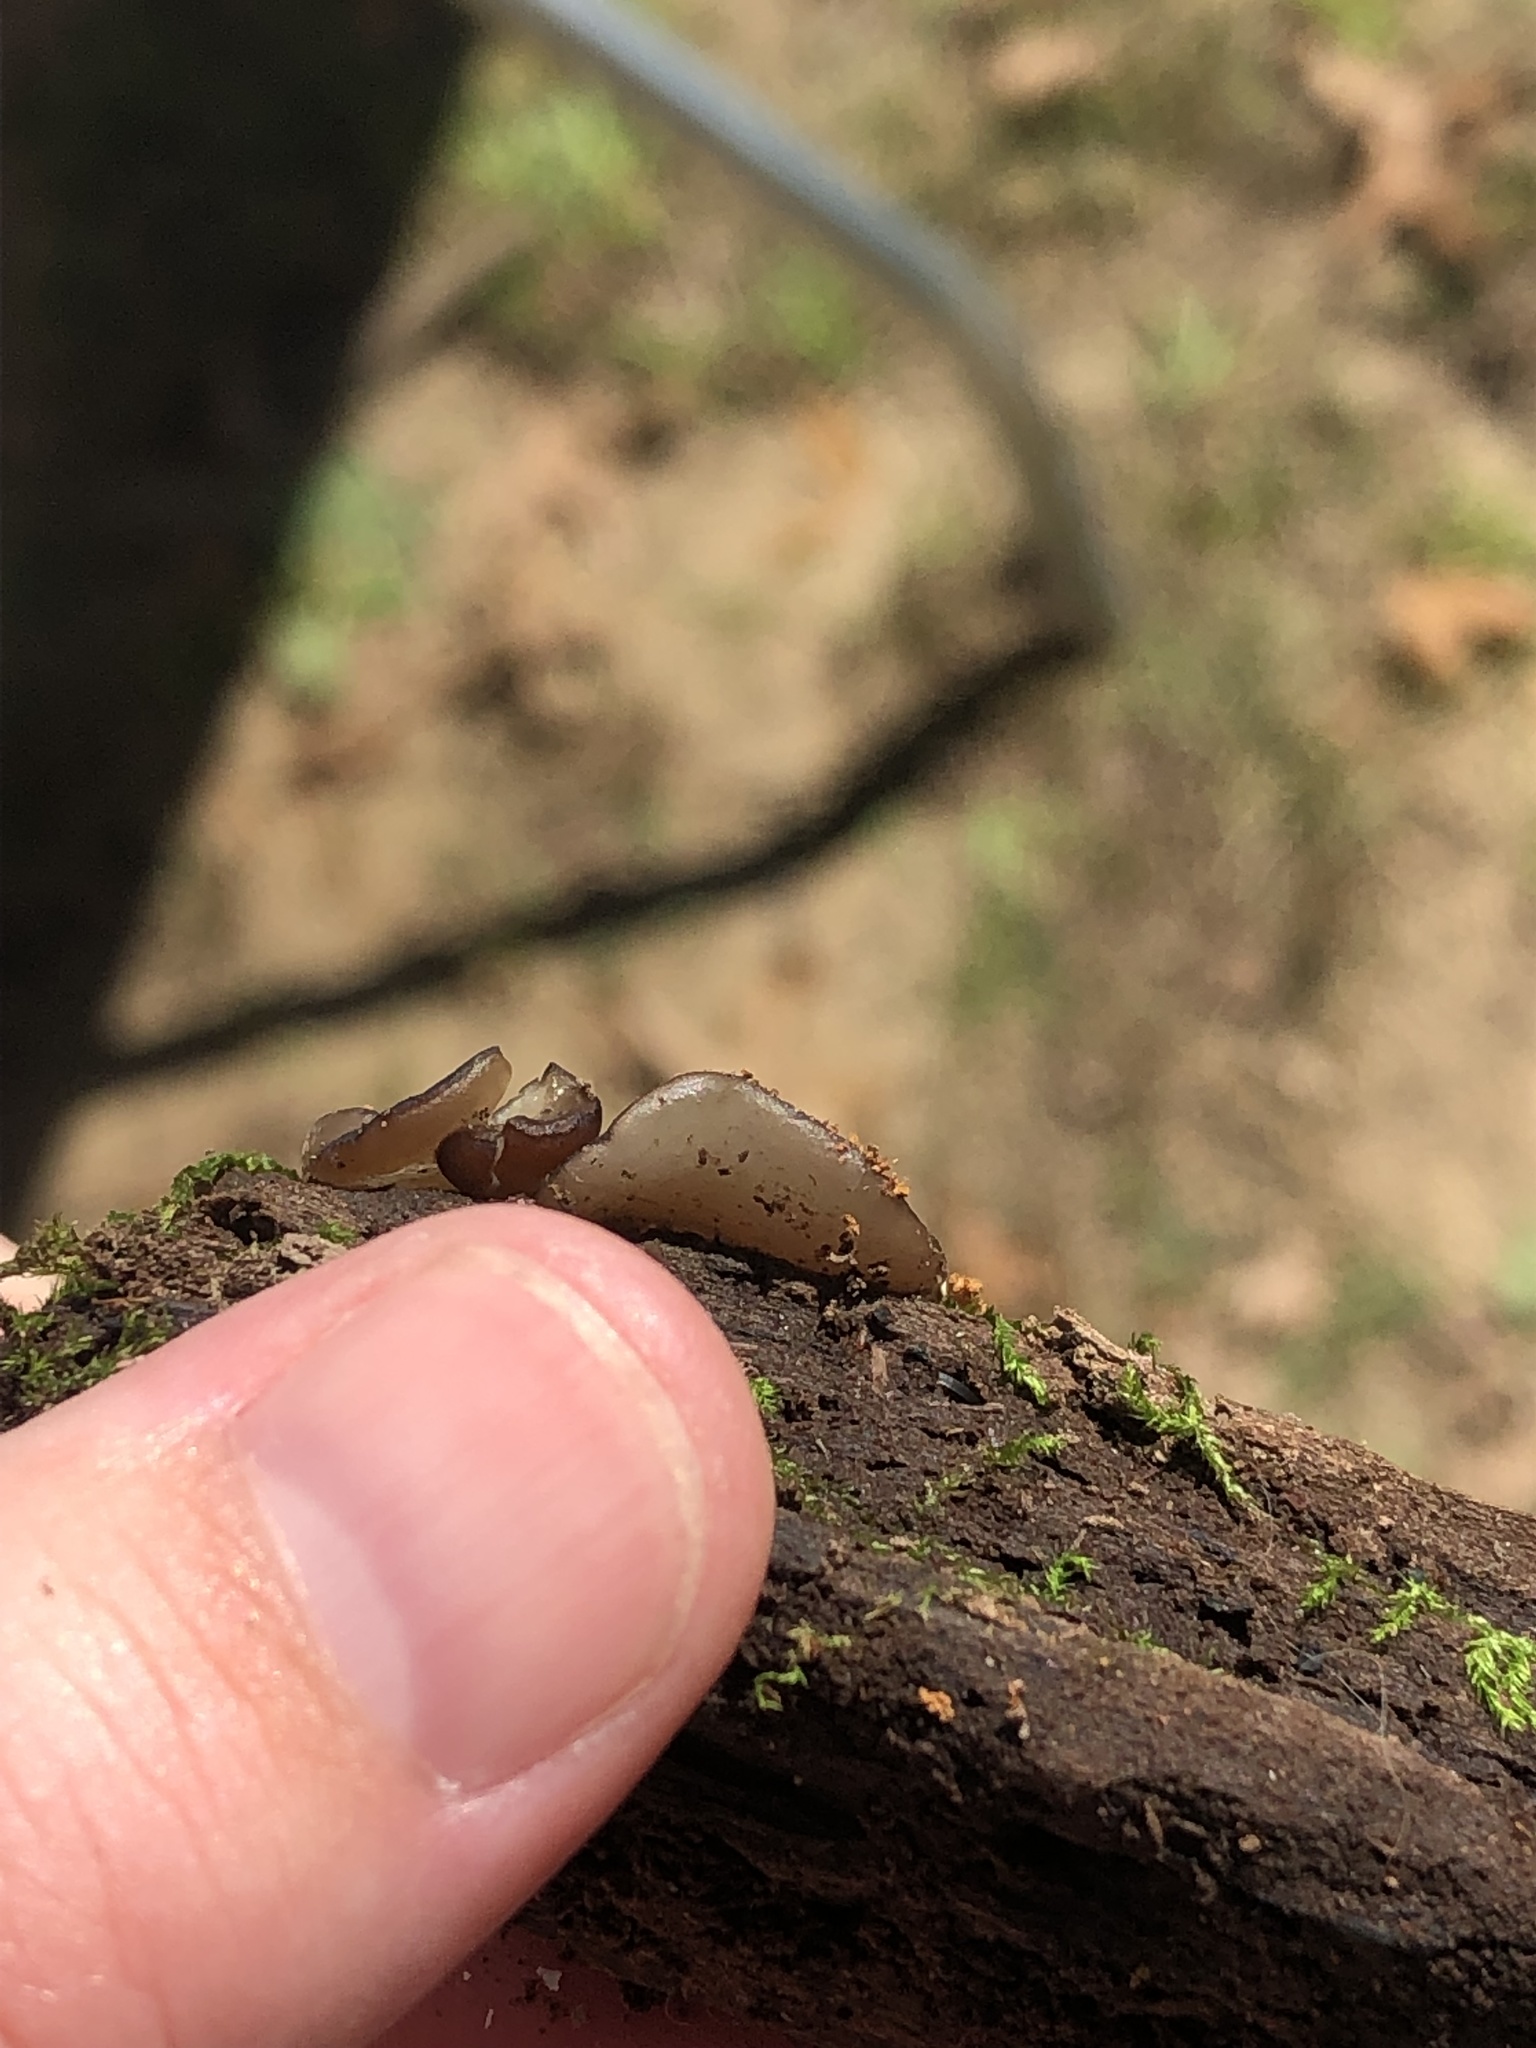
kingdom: Fungi
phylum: Ascomycota
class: Pezizomycetes
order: Pezizales
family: Pezizaceae
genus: Pachyella
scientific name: Pachyella clypeata
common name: Copper penny fungus
